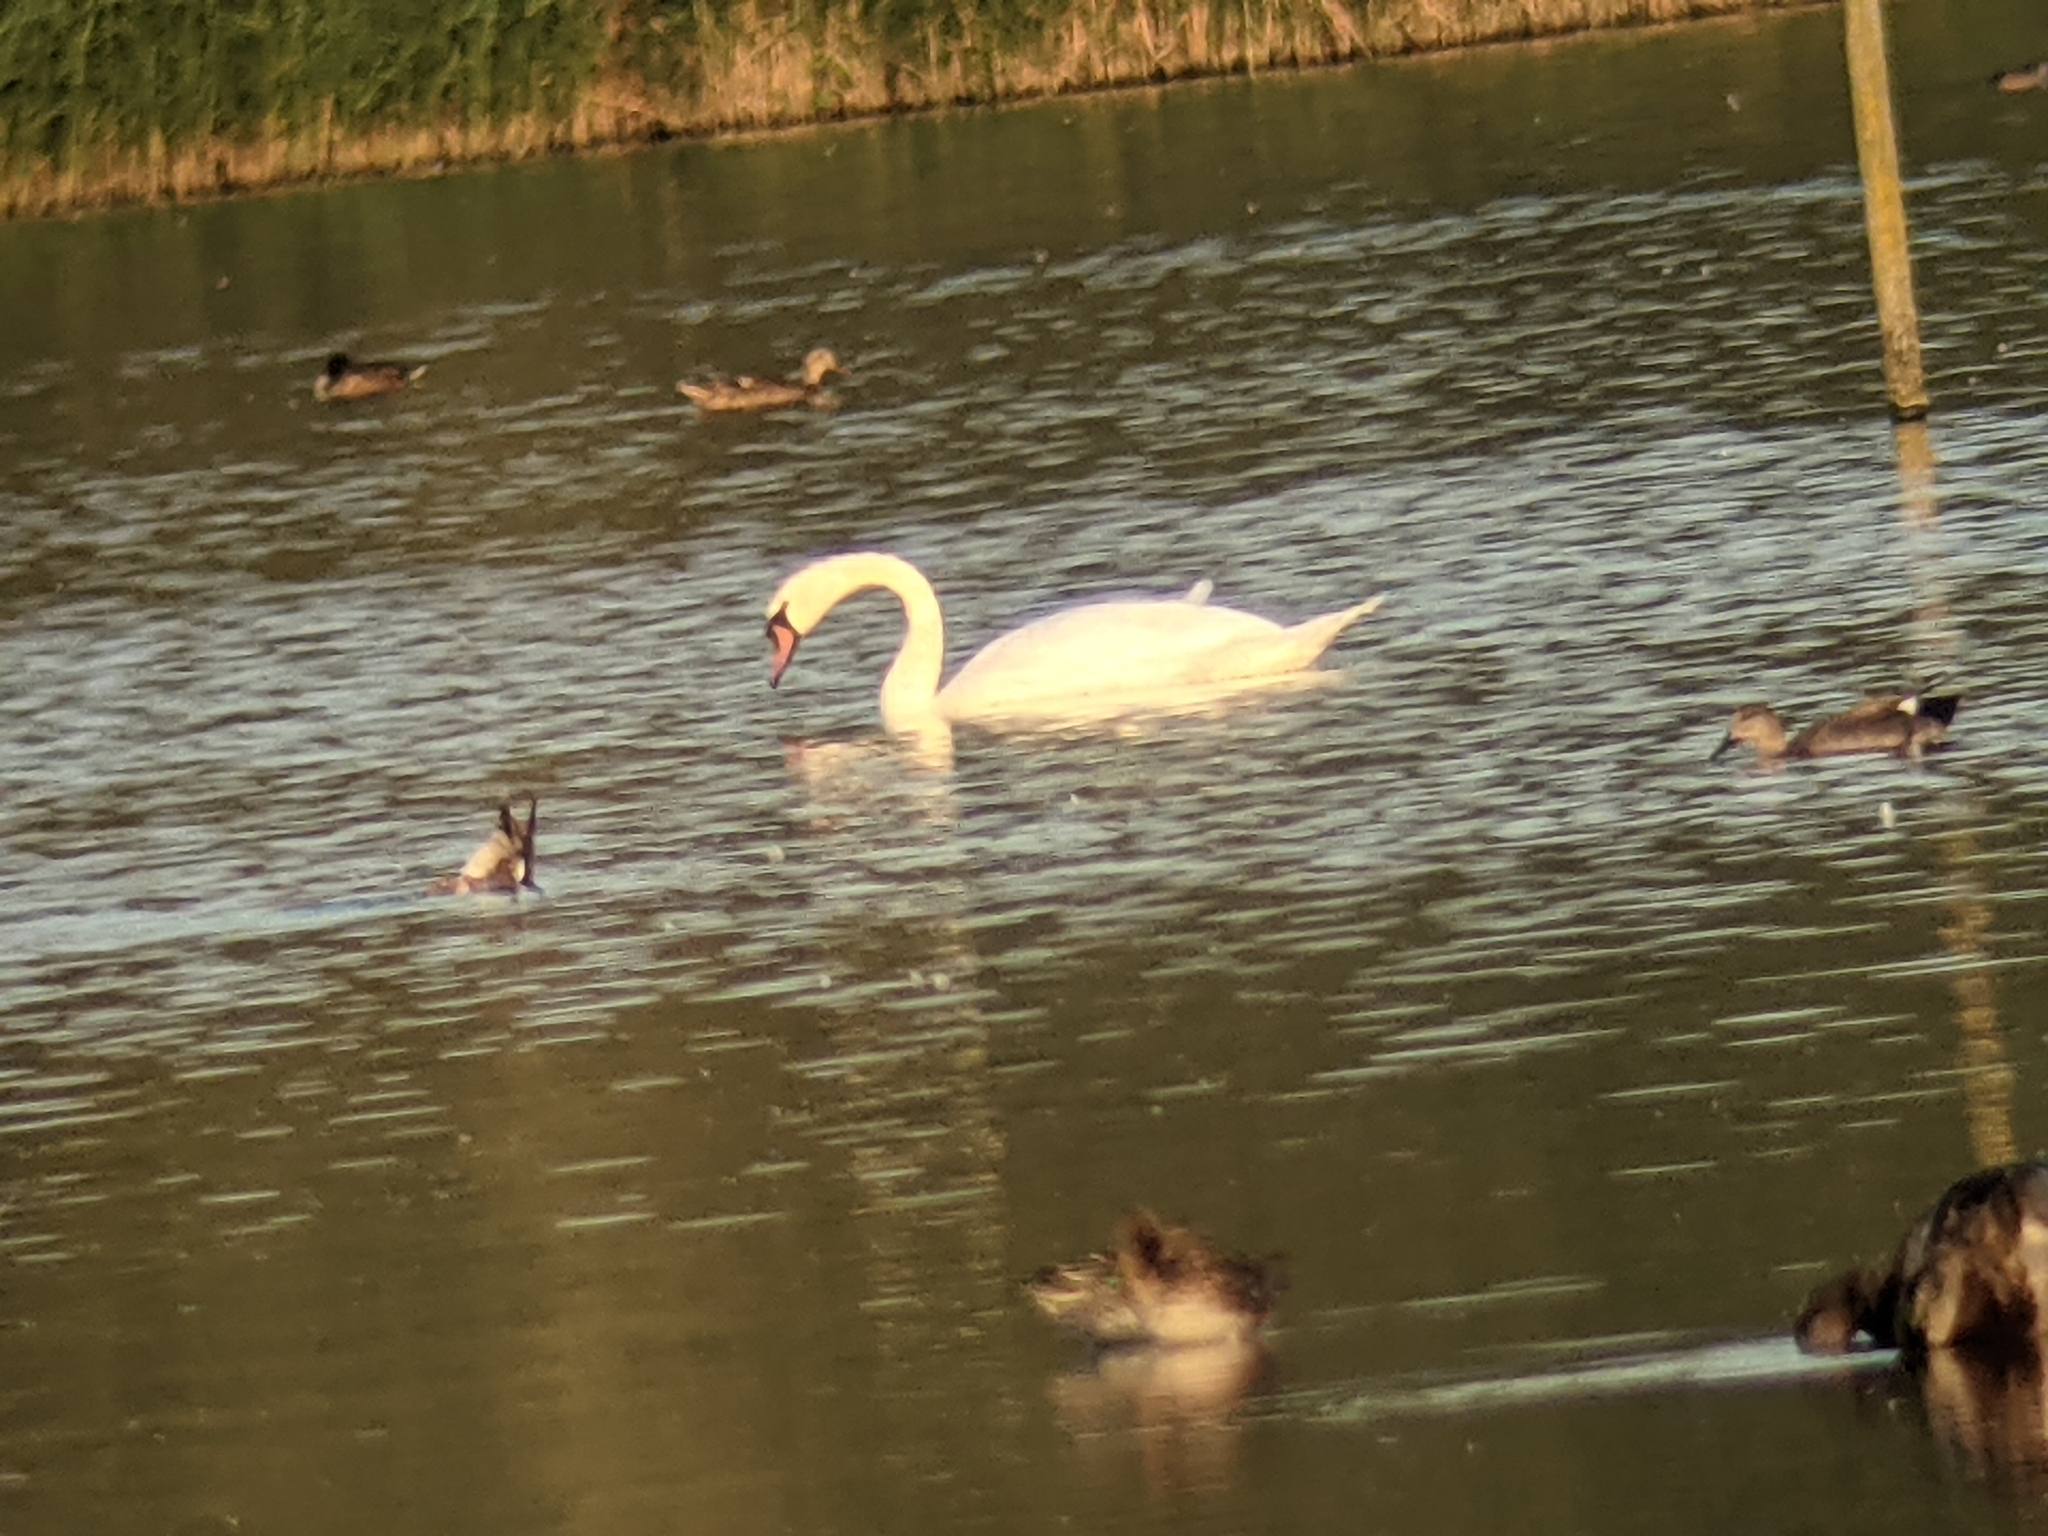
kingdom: Animalia
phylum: Chordata
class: Aves
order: Anseriformes
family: Anatidae
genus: Cygnus
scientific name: Cygnus olor
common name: Mute swan
